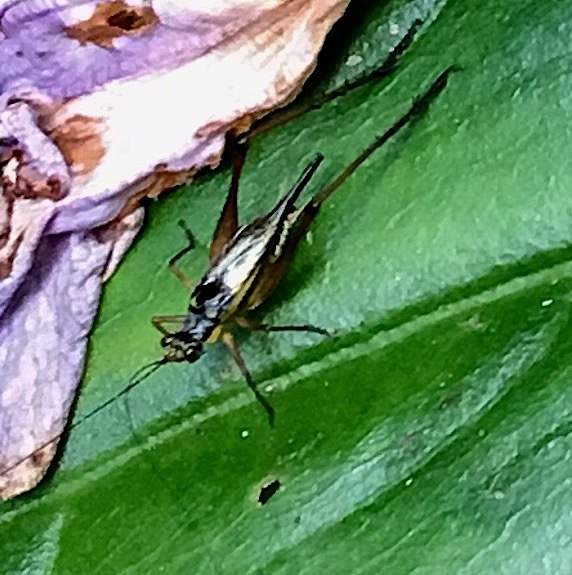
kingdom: Animalia
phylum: Arthropoda
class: Insecta
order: Orthoptera
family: Gryllidae
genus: Nisitrus
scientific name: Nisitrus malaya
